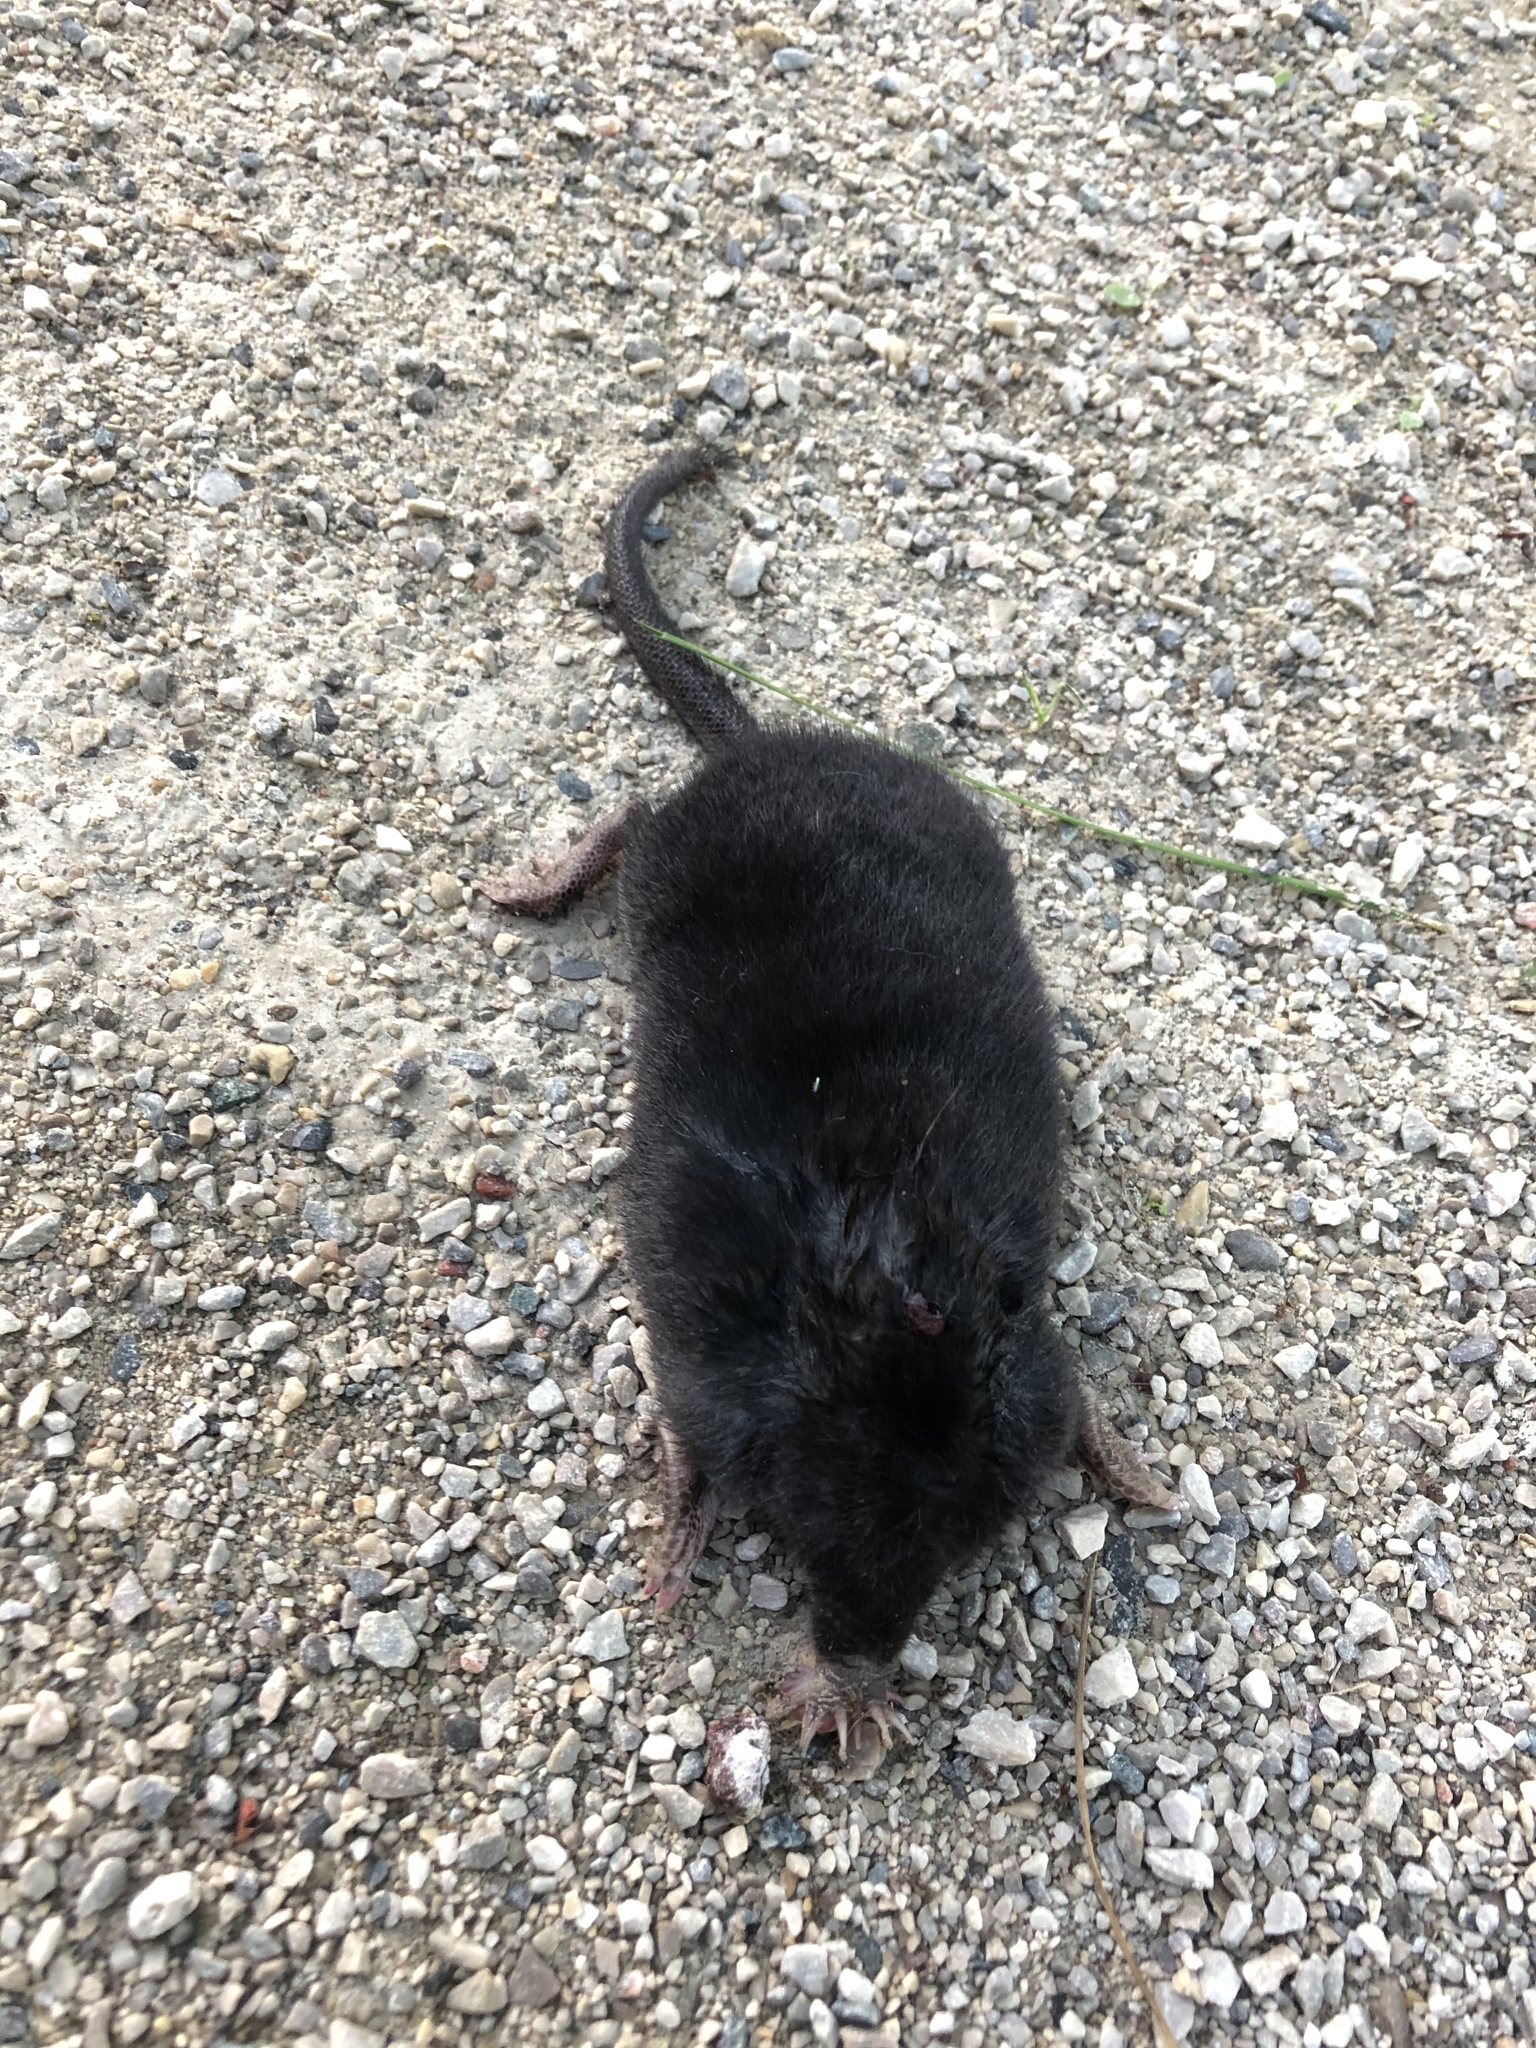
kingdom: Animalia
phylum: Chordata
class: Mammalia
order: Soricomorpha
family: Talpidae
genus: Condylura
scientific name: Condylura cristata
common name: Star-nosed mole
